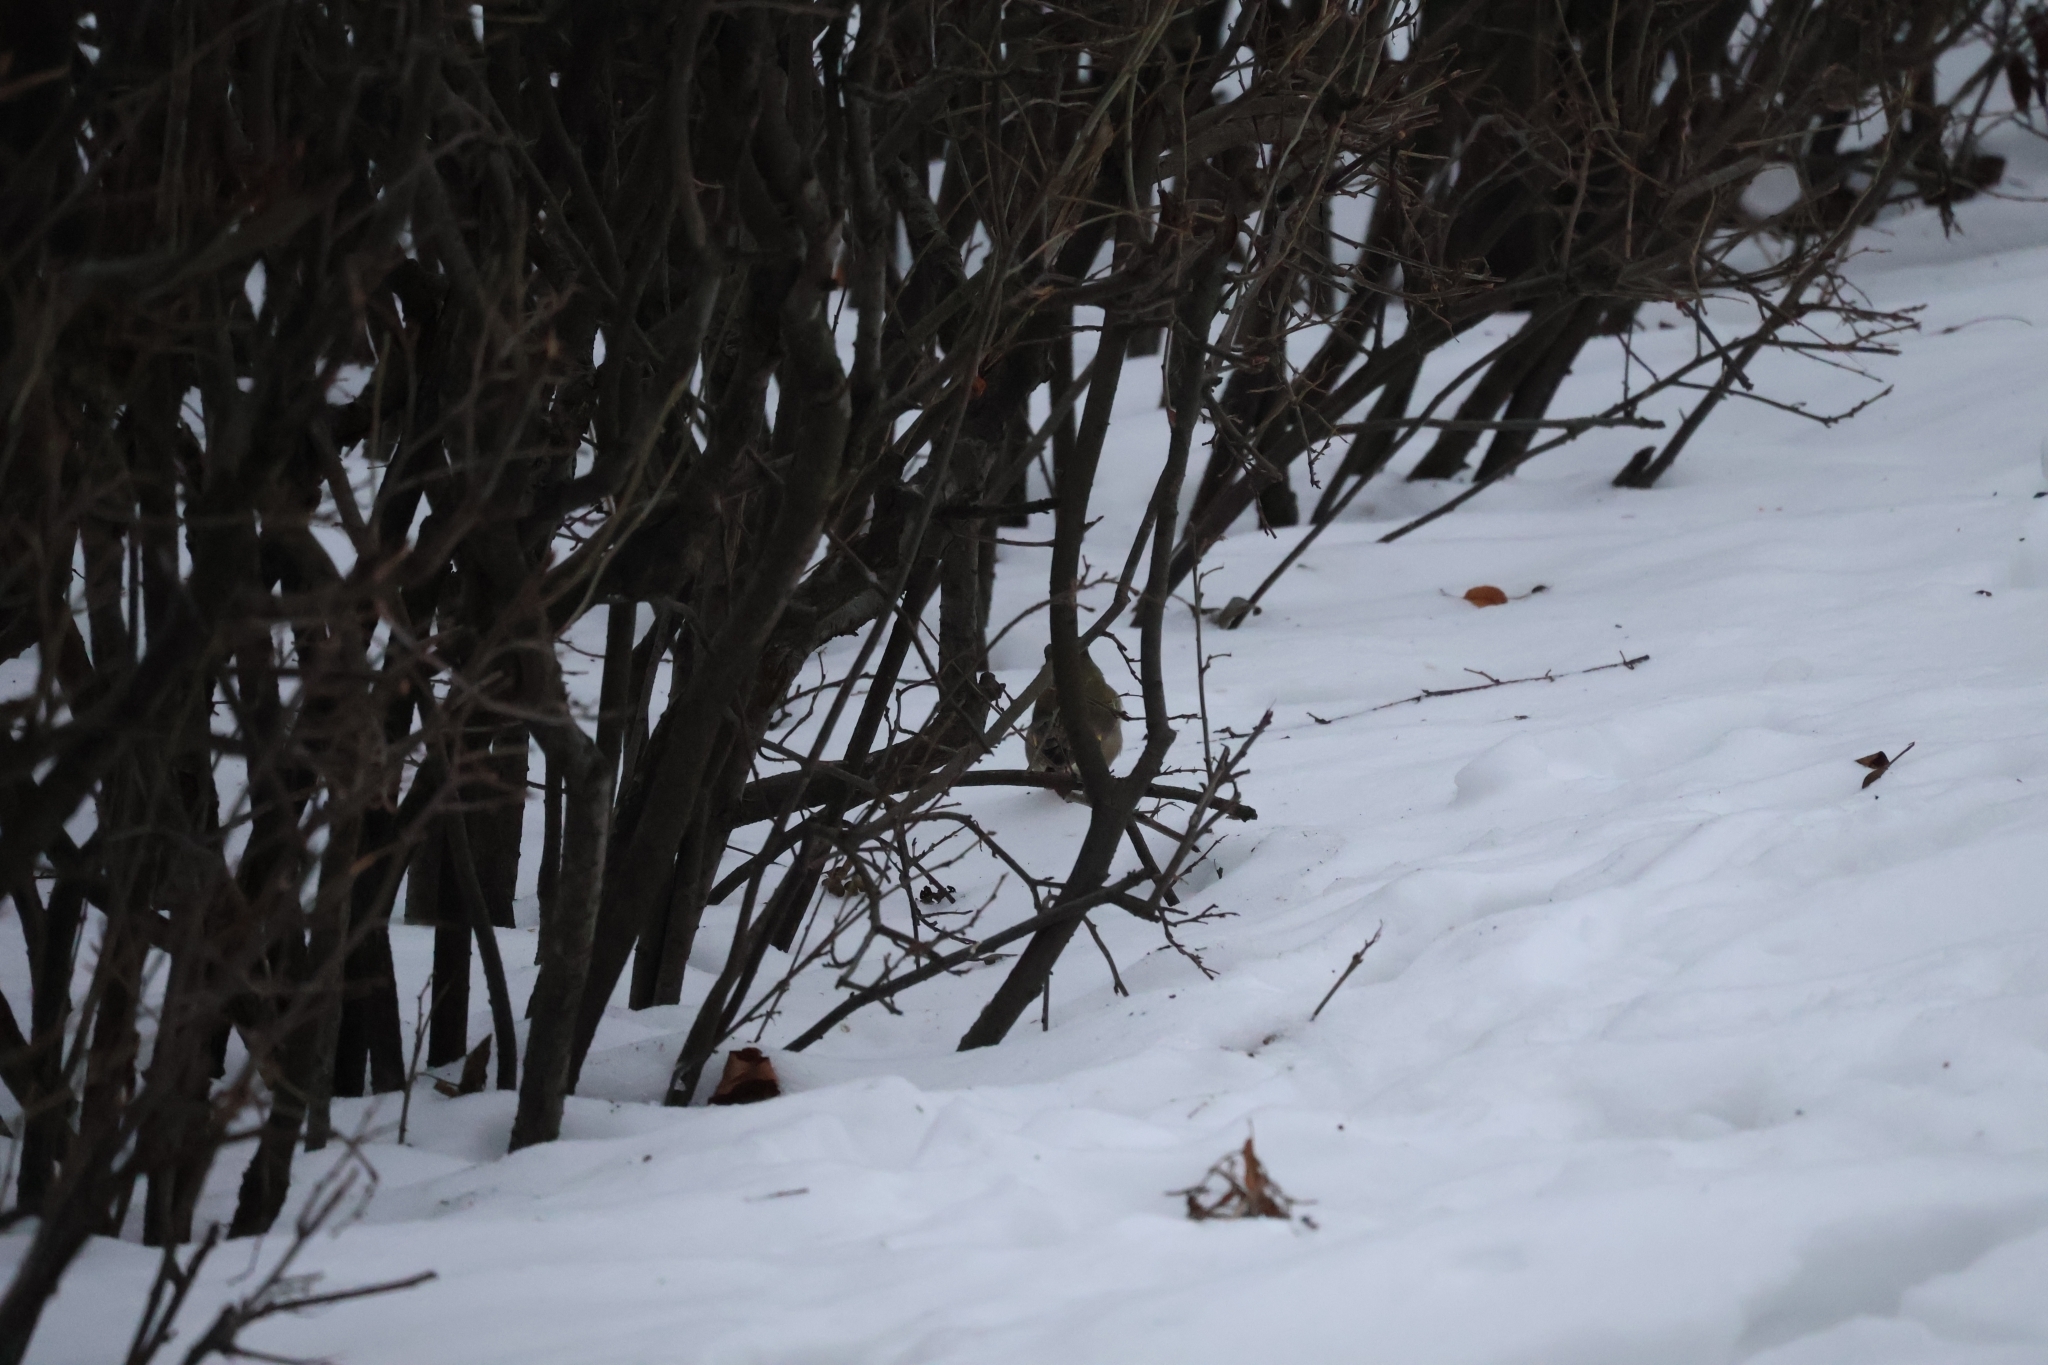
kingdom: Plantae
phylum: Tracheophyta
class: Liliopsida
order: Poales
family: Poaceae
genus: Chloris
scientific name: Chloris chloris
